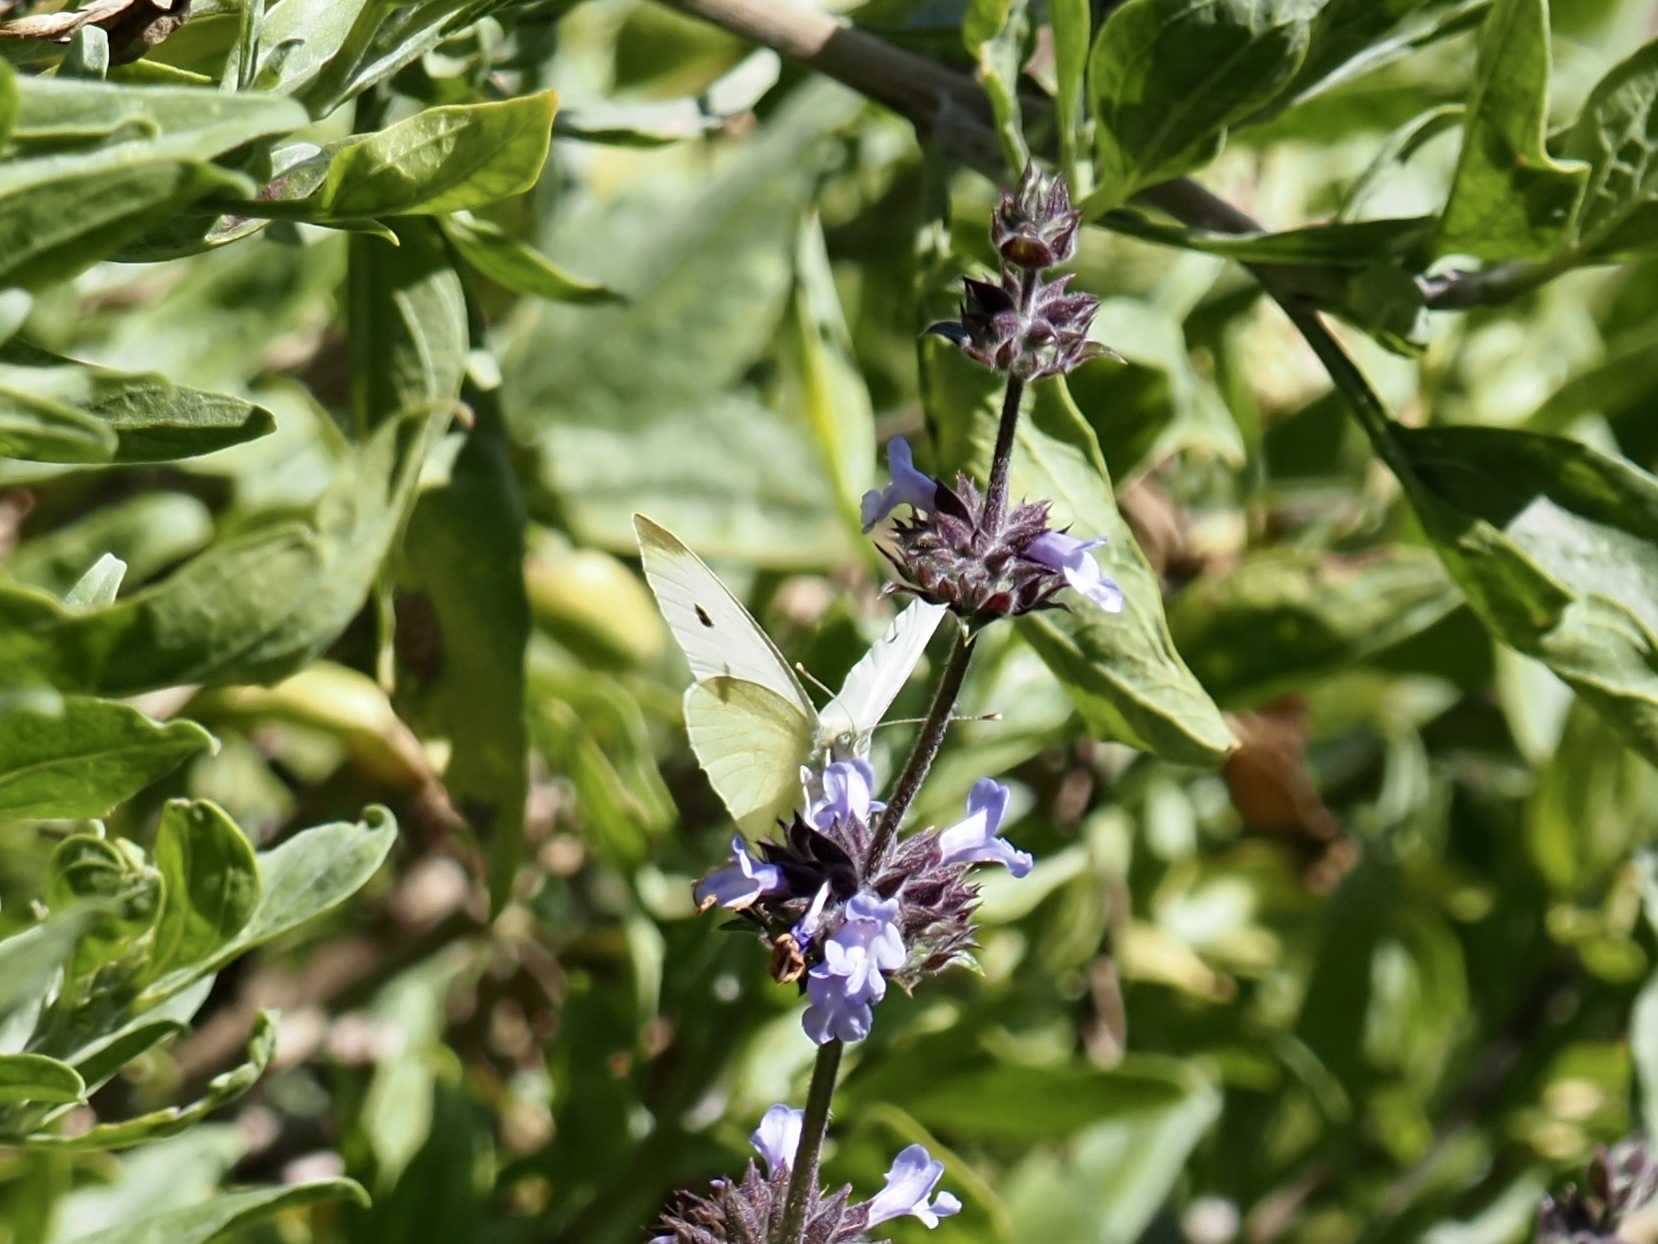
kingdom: Animalia
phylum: Arthropoda
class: Insecta
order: Lepidoptera
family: Pieridae
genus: Pieris
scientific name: Pieris rapae
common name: Small white
